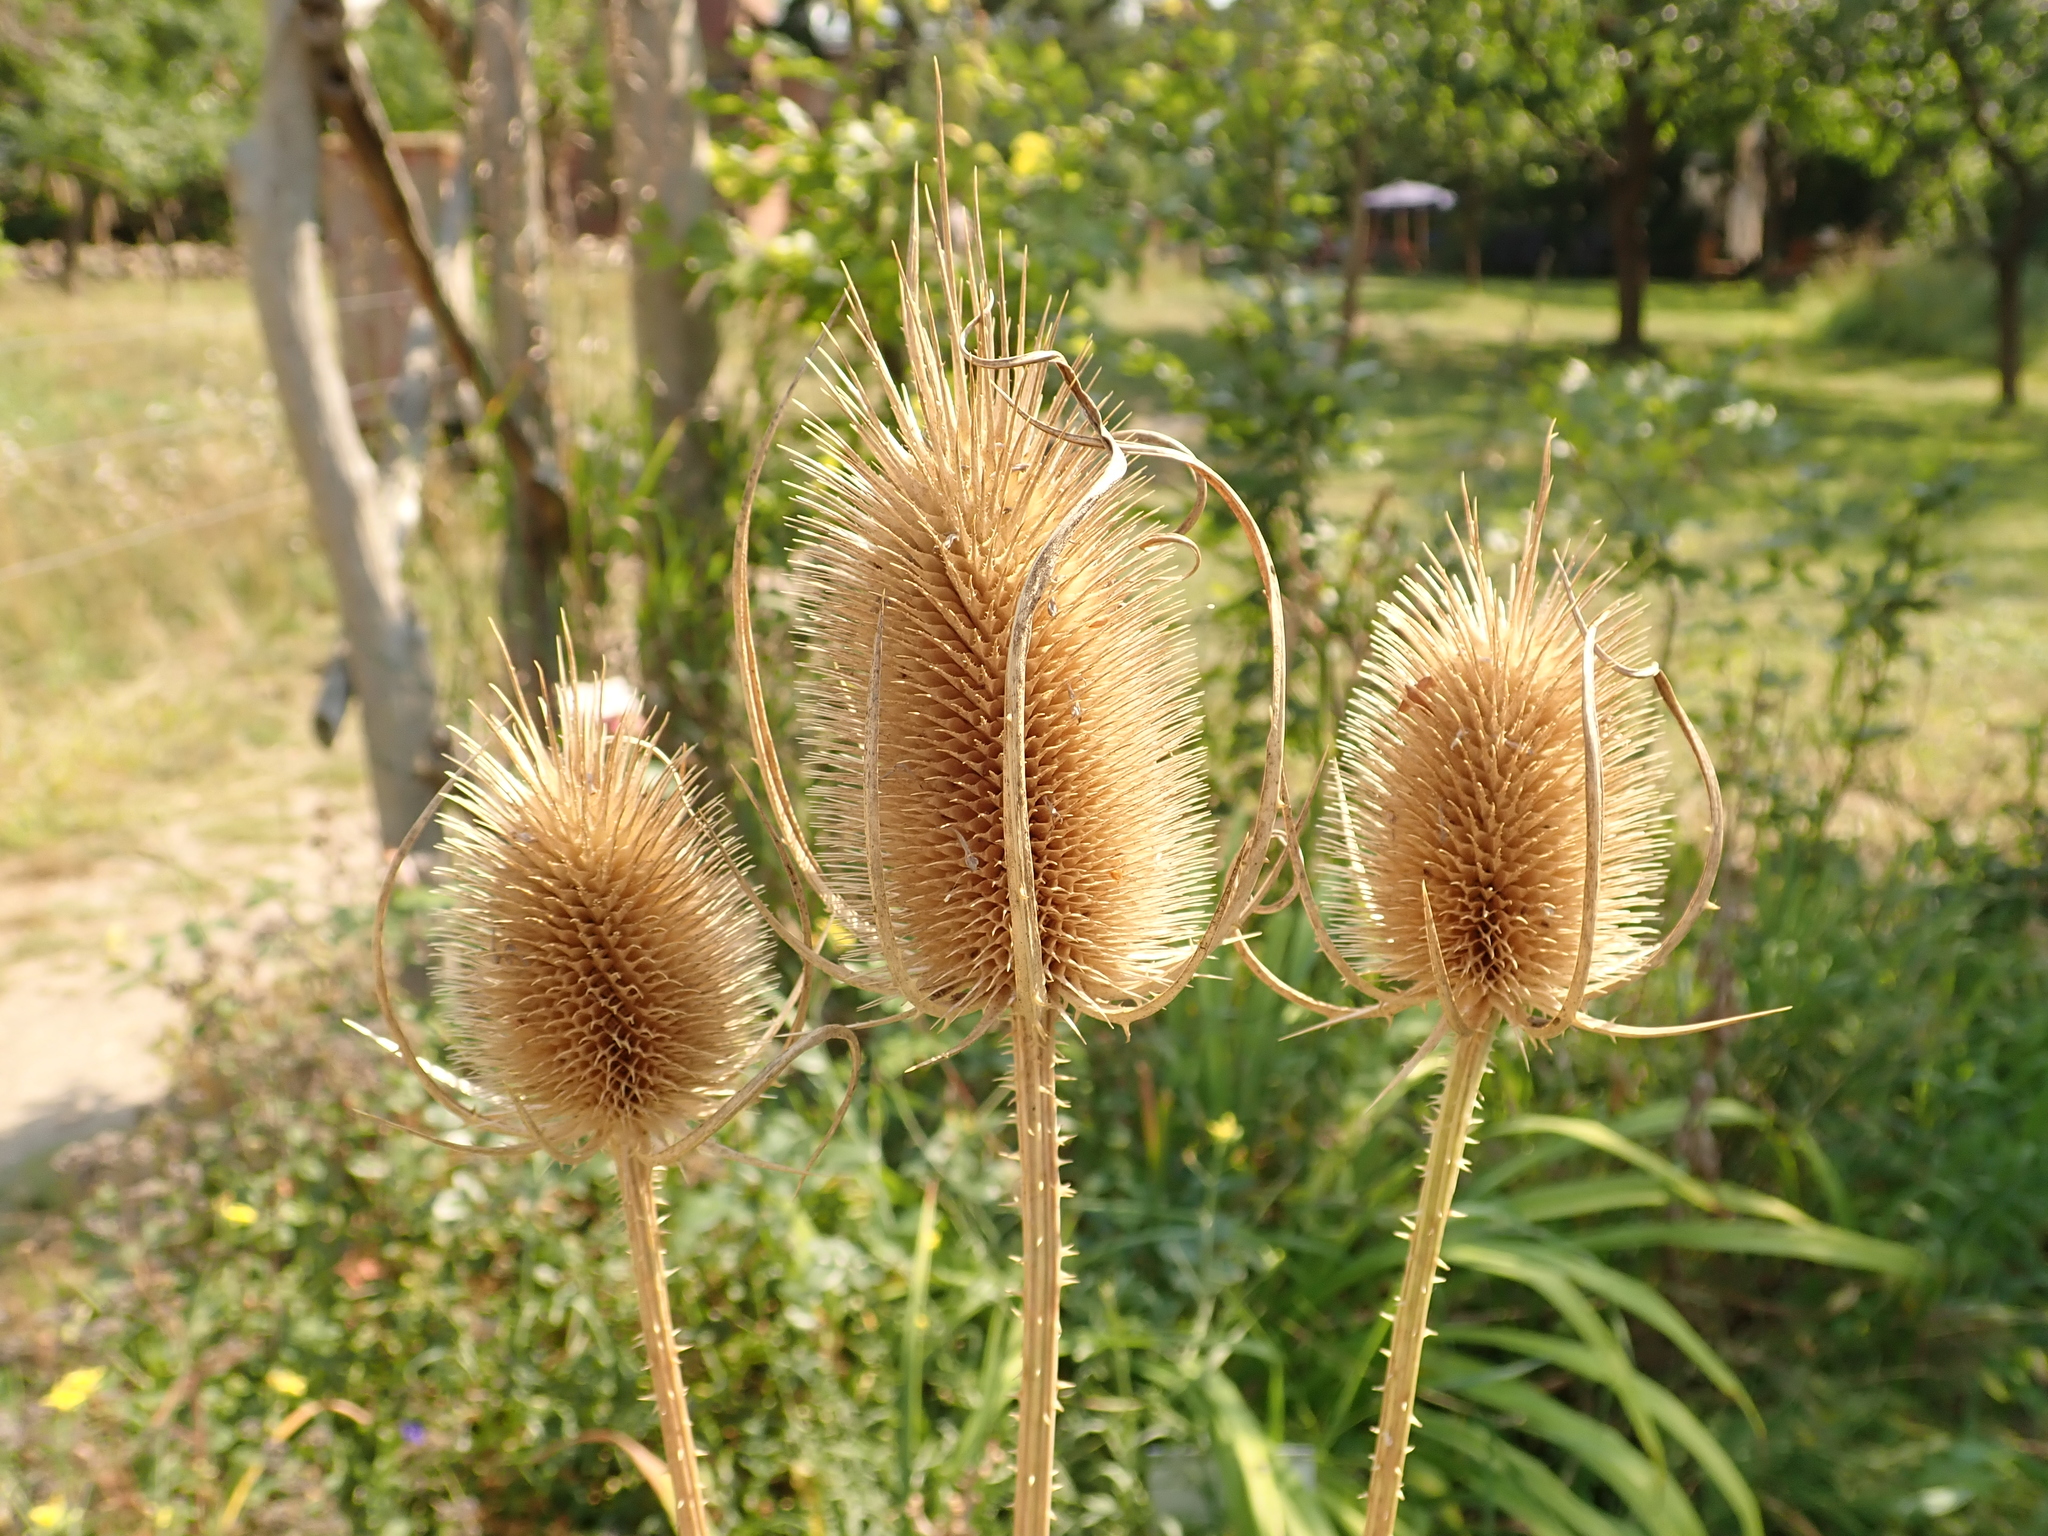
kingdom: Plantae
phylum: Tracheophyta
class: Magnoliopsida
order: Dipsacales
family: Caprifoliaceae
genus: Dipsacus
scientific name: Dipsacus fullonum
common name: Teasel
